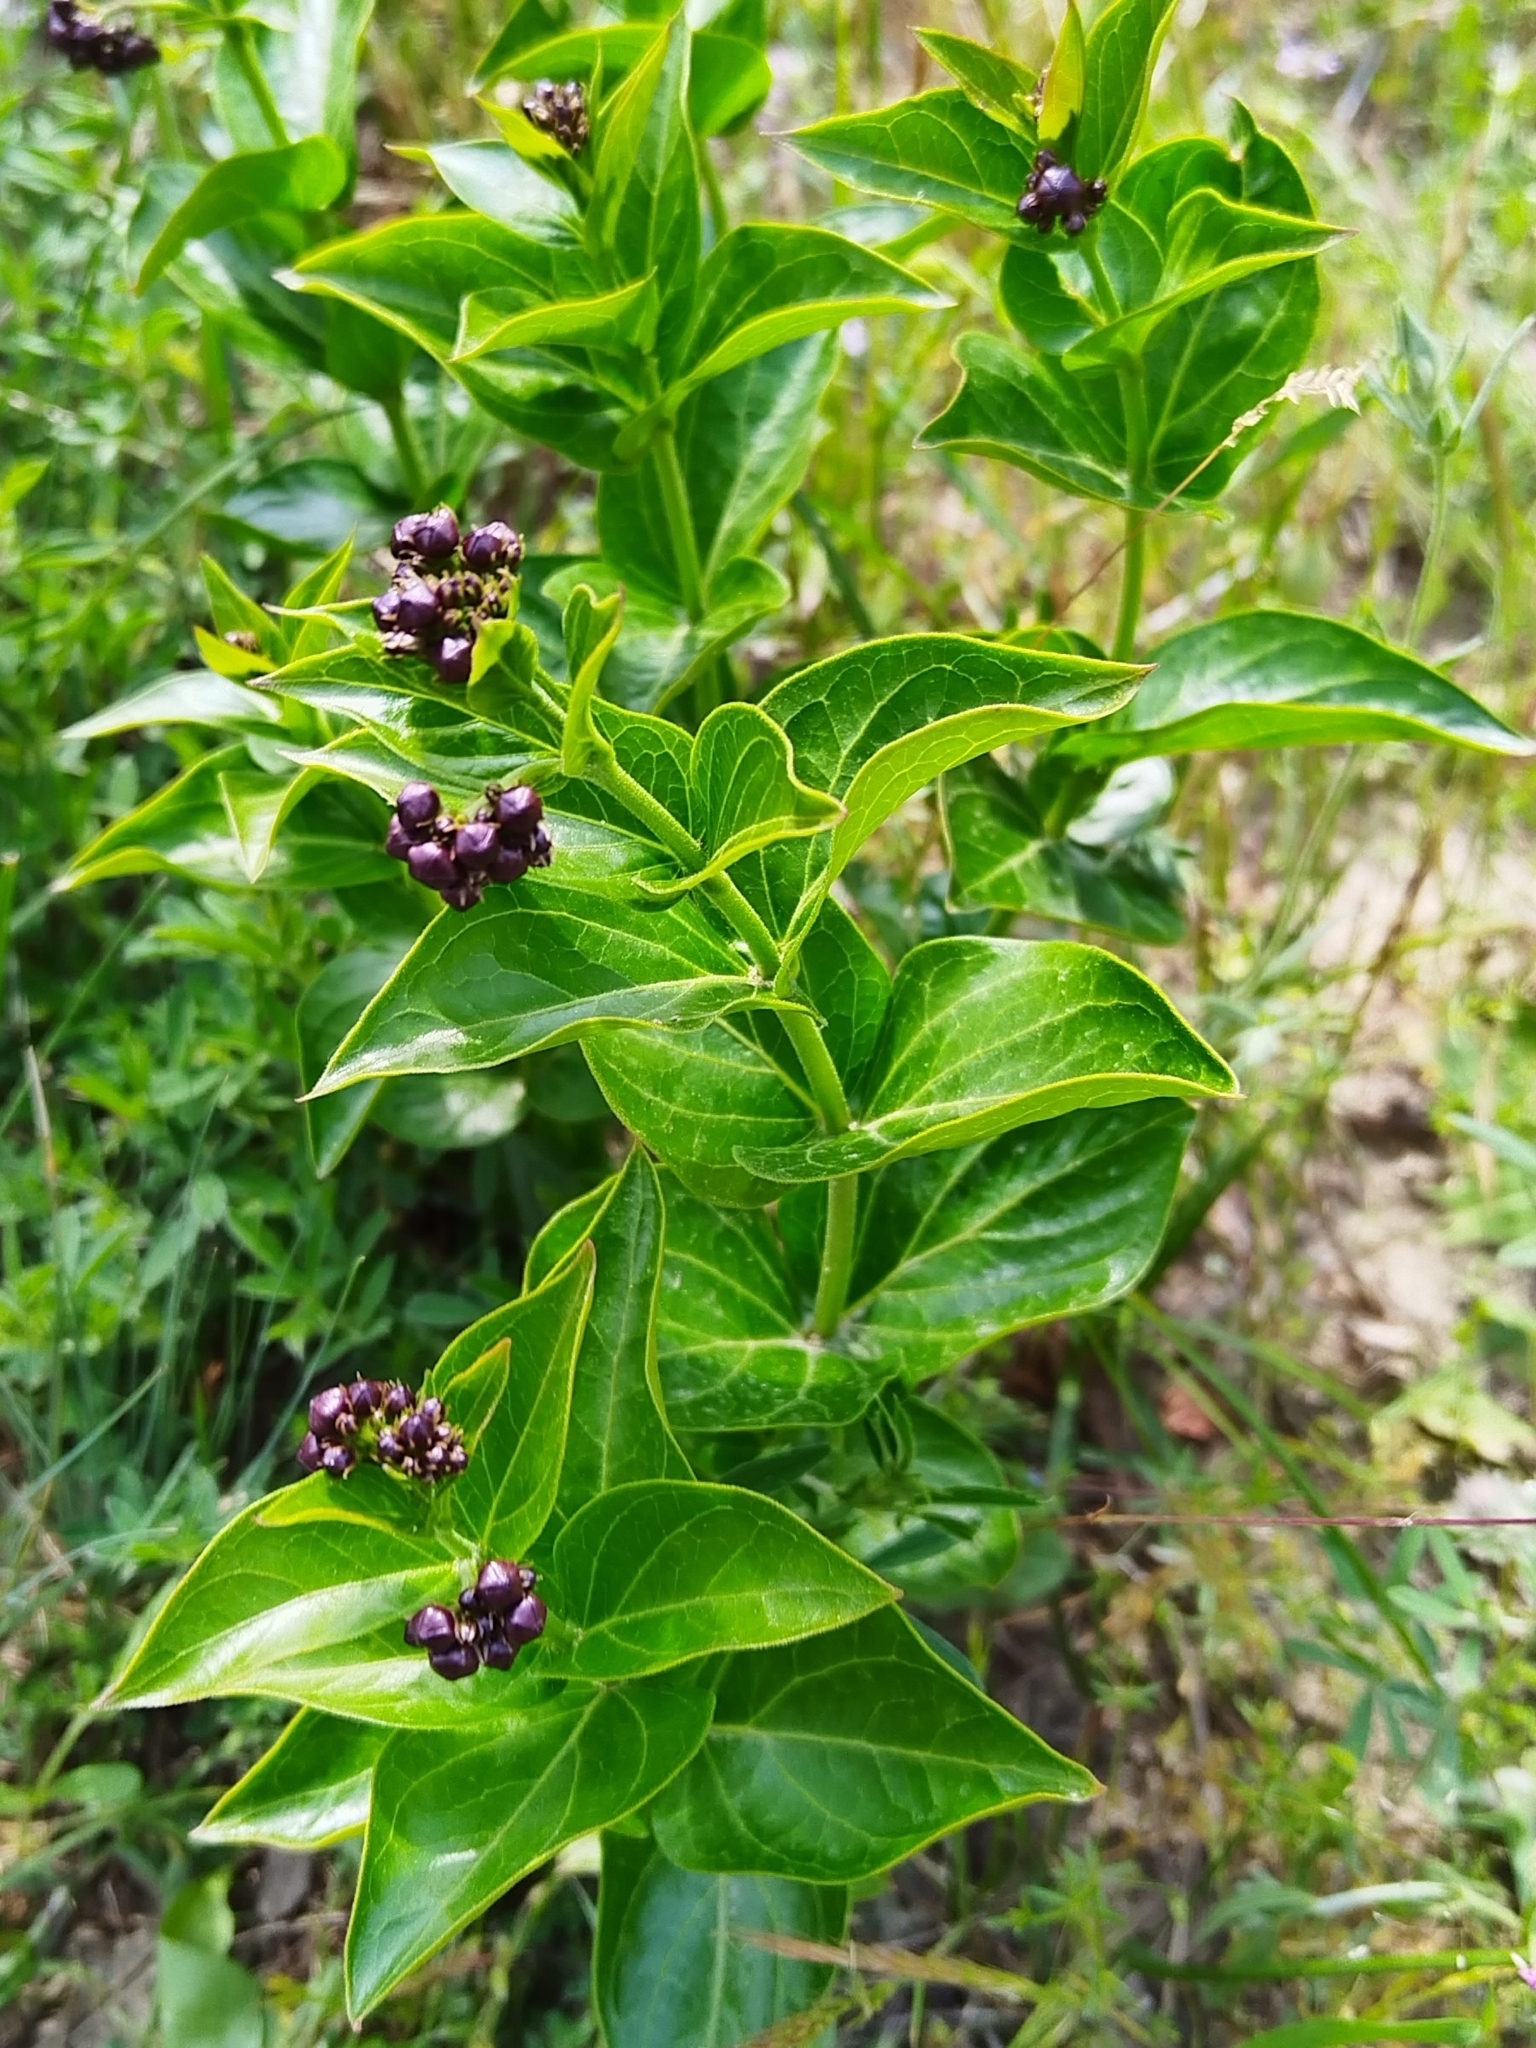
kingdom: Plantae
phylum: Tracheophyta
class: Magnoliopsida
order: Gentianales
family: Apocynaceae
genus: Vincetoxicum
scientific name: Vincetoxicum funebre
